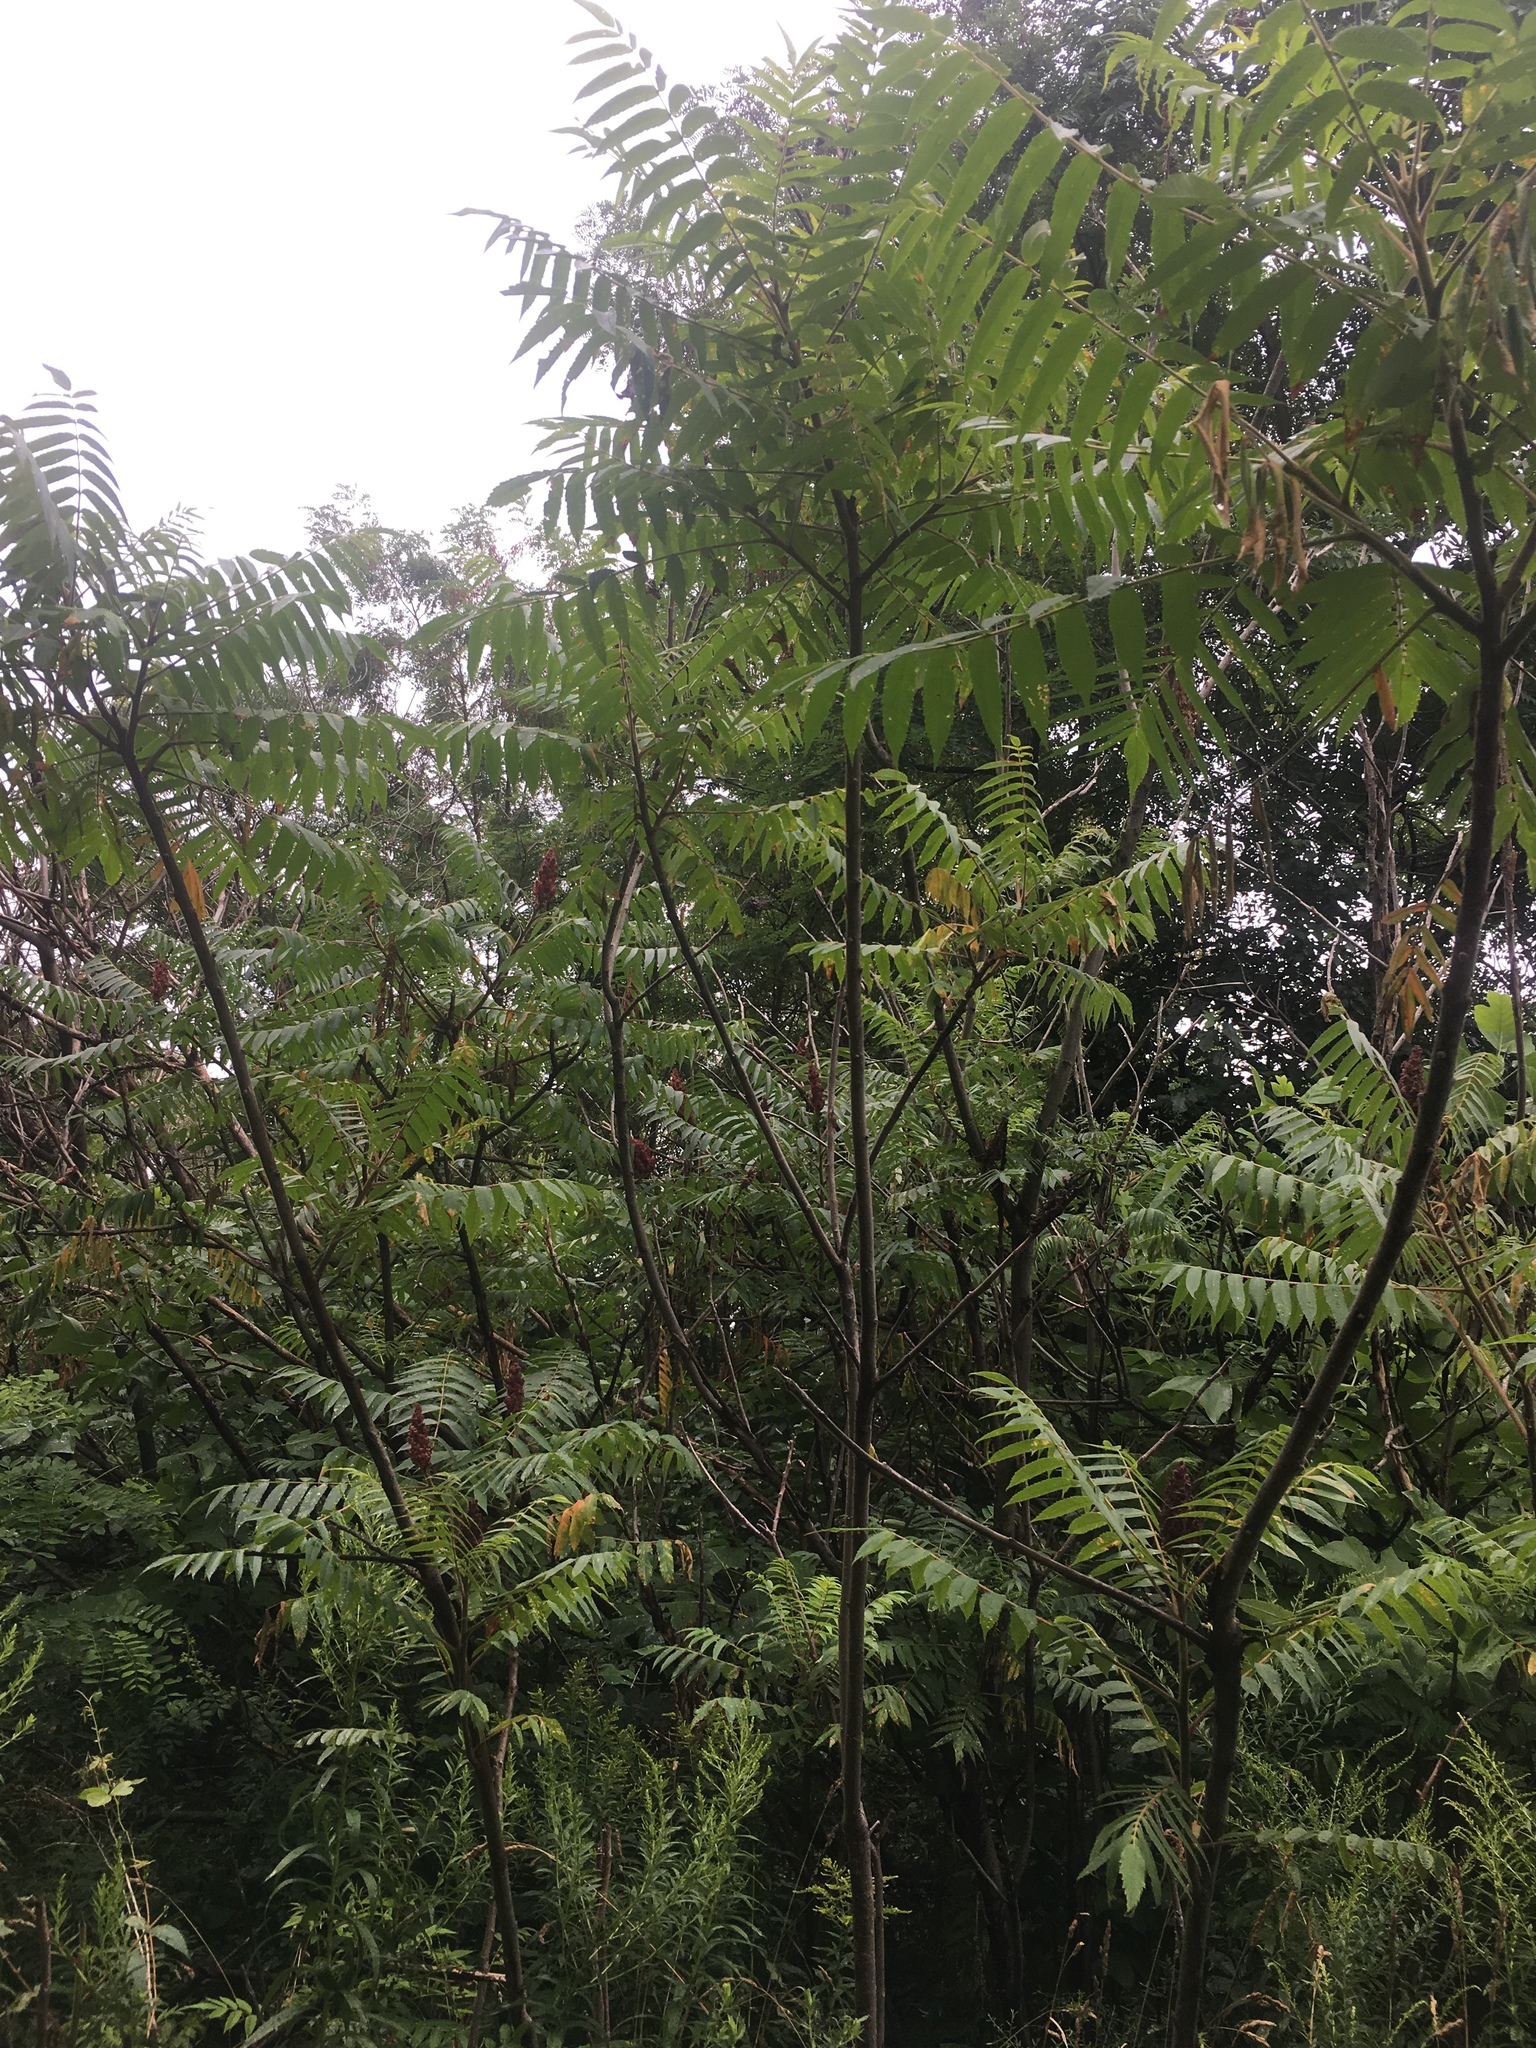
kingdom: Plantae
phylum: Tracheophyta
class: Magnoliopsida
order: Sapindales
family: Anacardiaceae
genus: Rhus
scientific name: Rhus typhina
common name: Staghorn sumac
